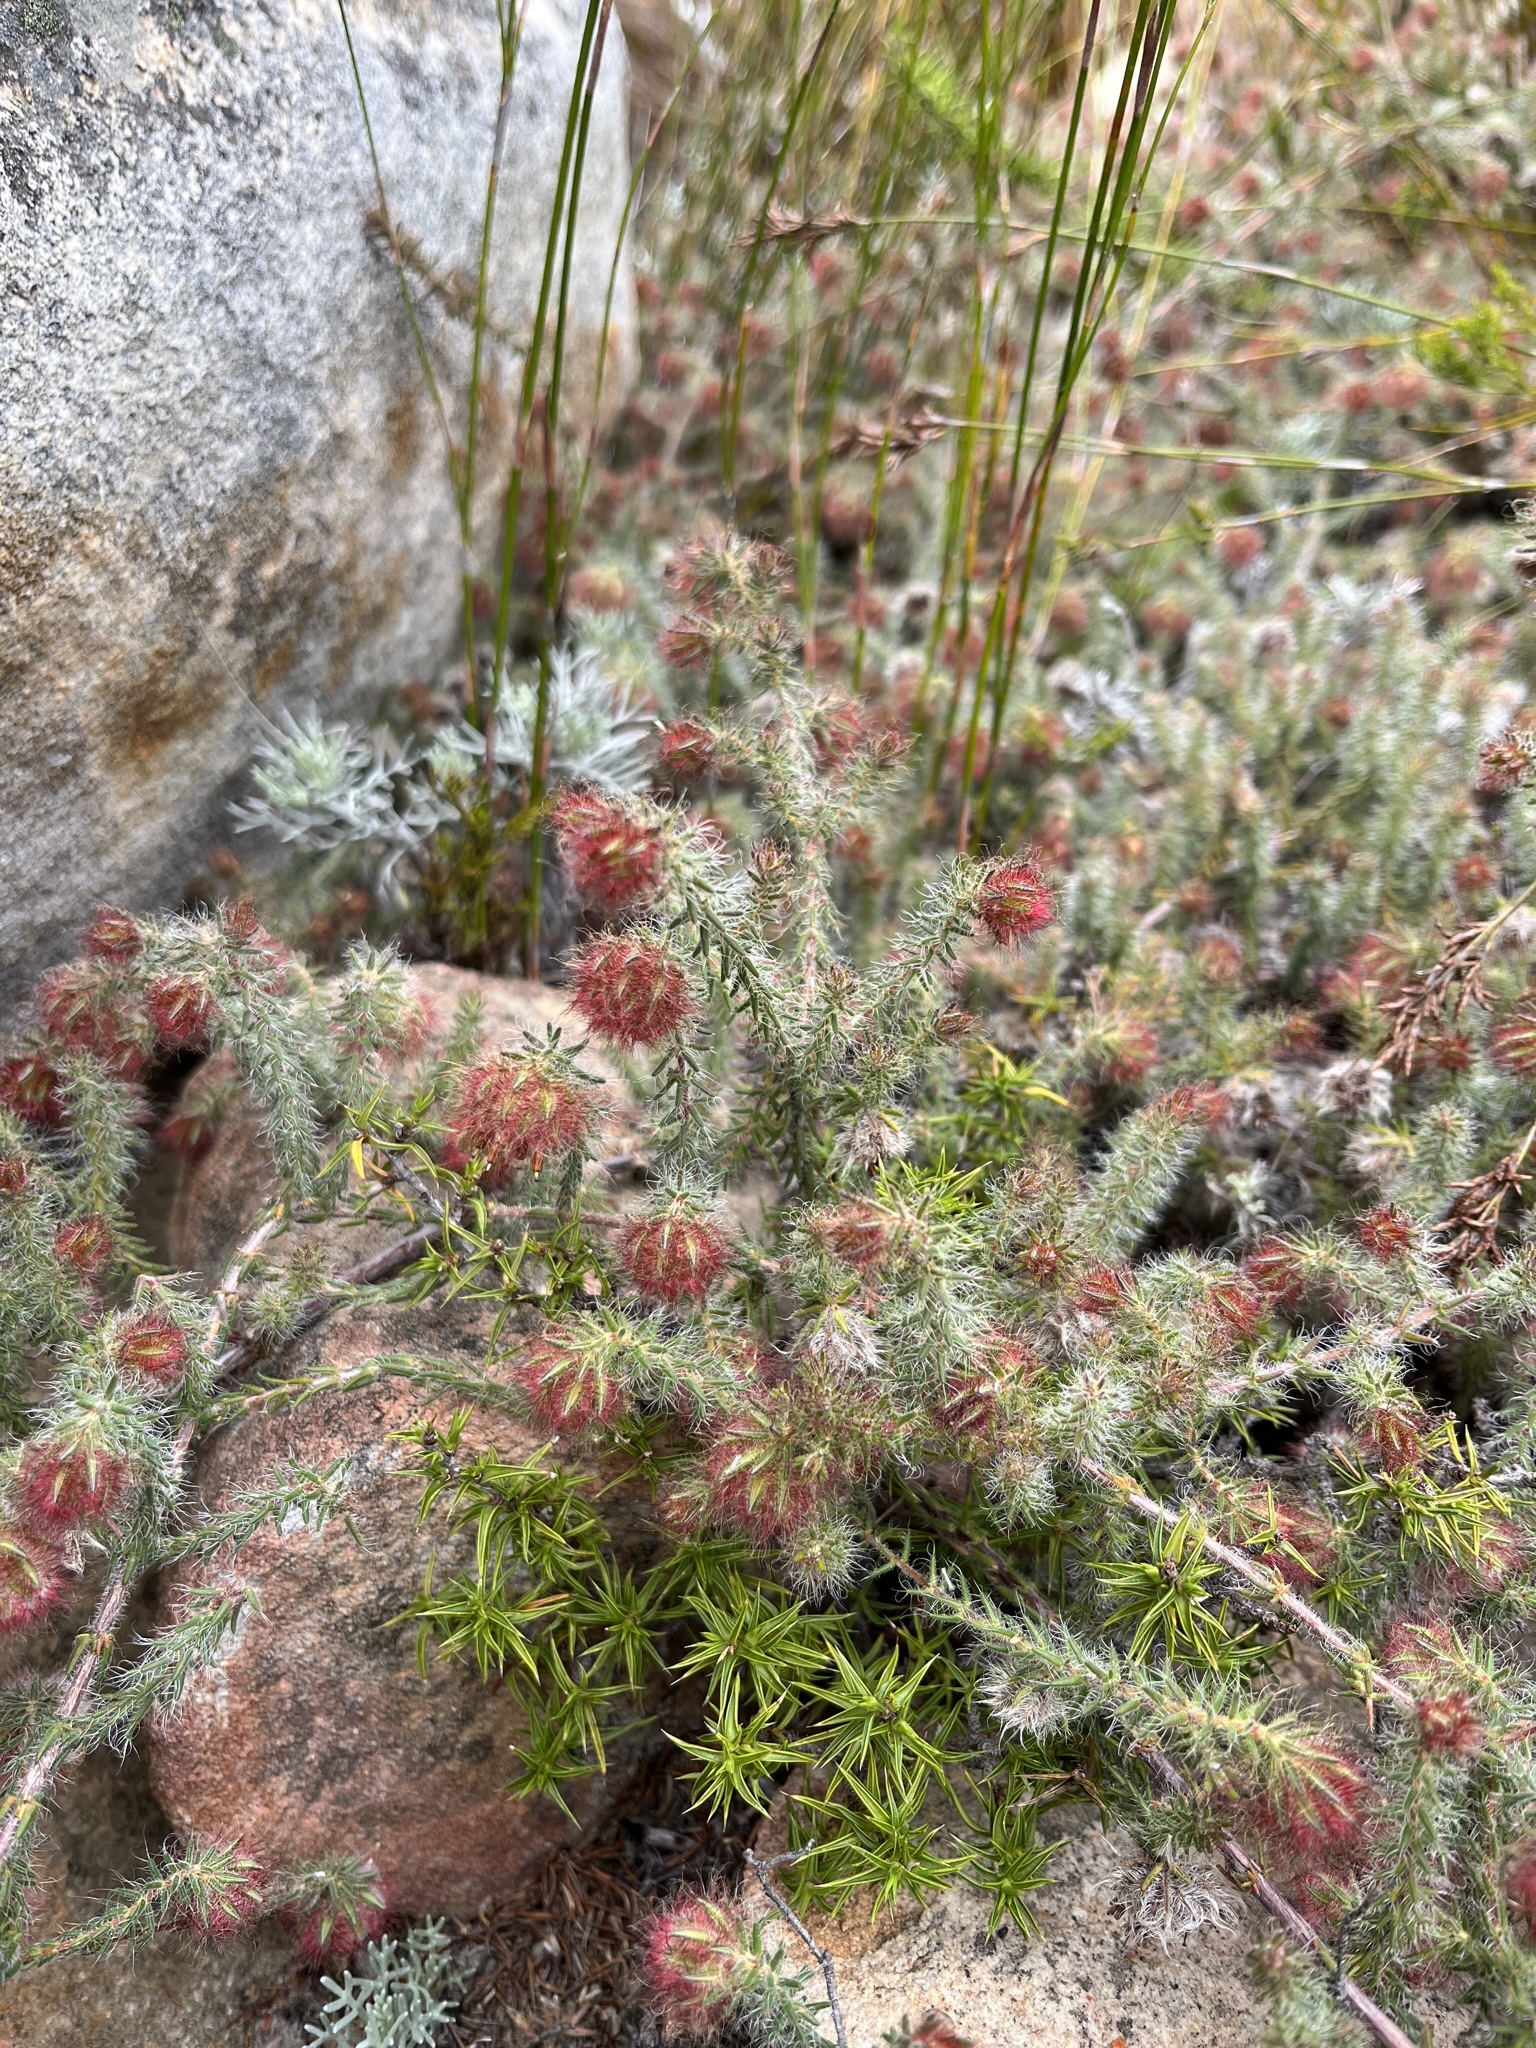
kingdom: Plantae
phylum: Tracheophyta
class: Magnoliopsida
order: Ericales
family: Ericaceae
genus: Erica
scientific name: Erica hanekomii
